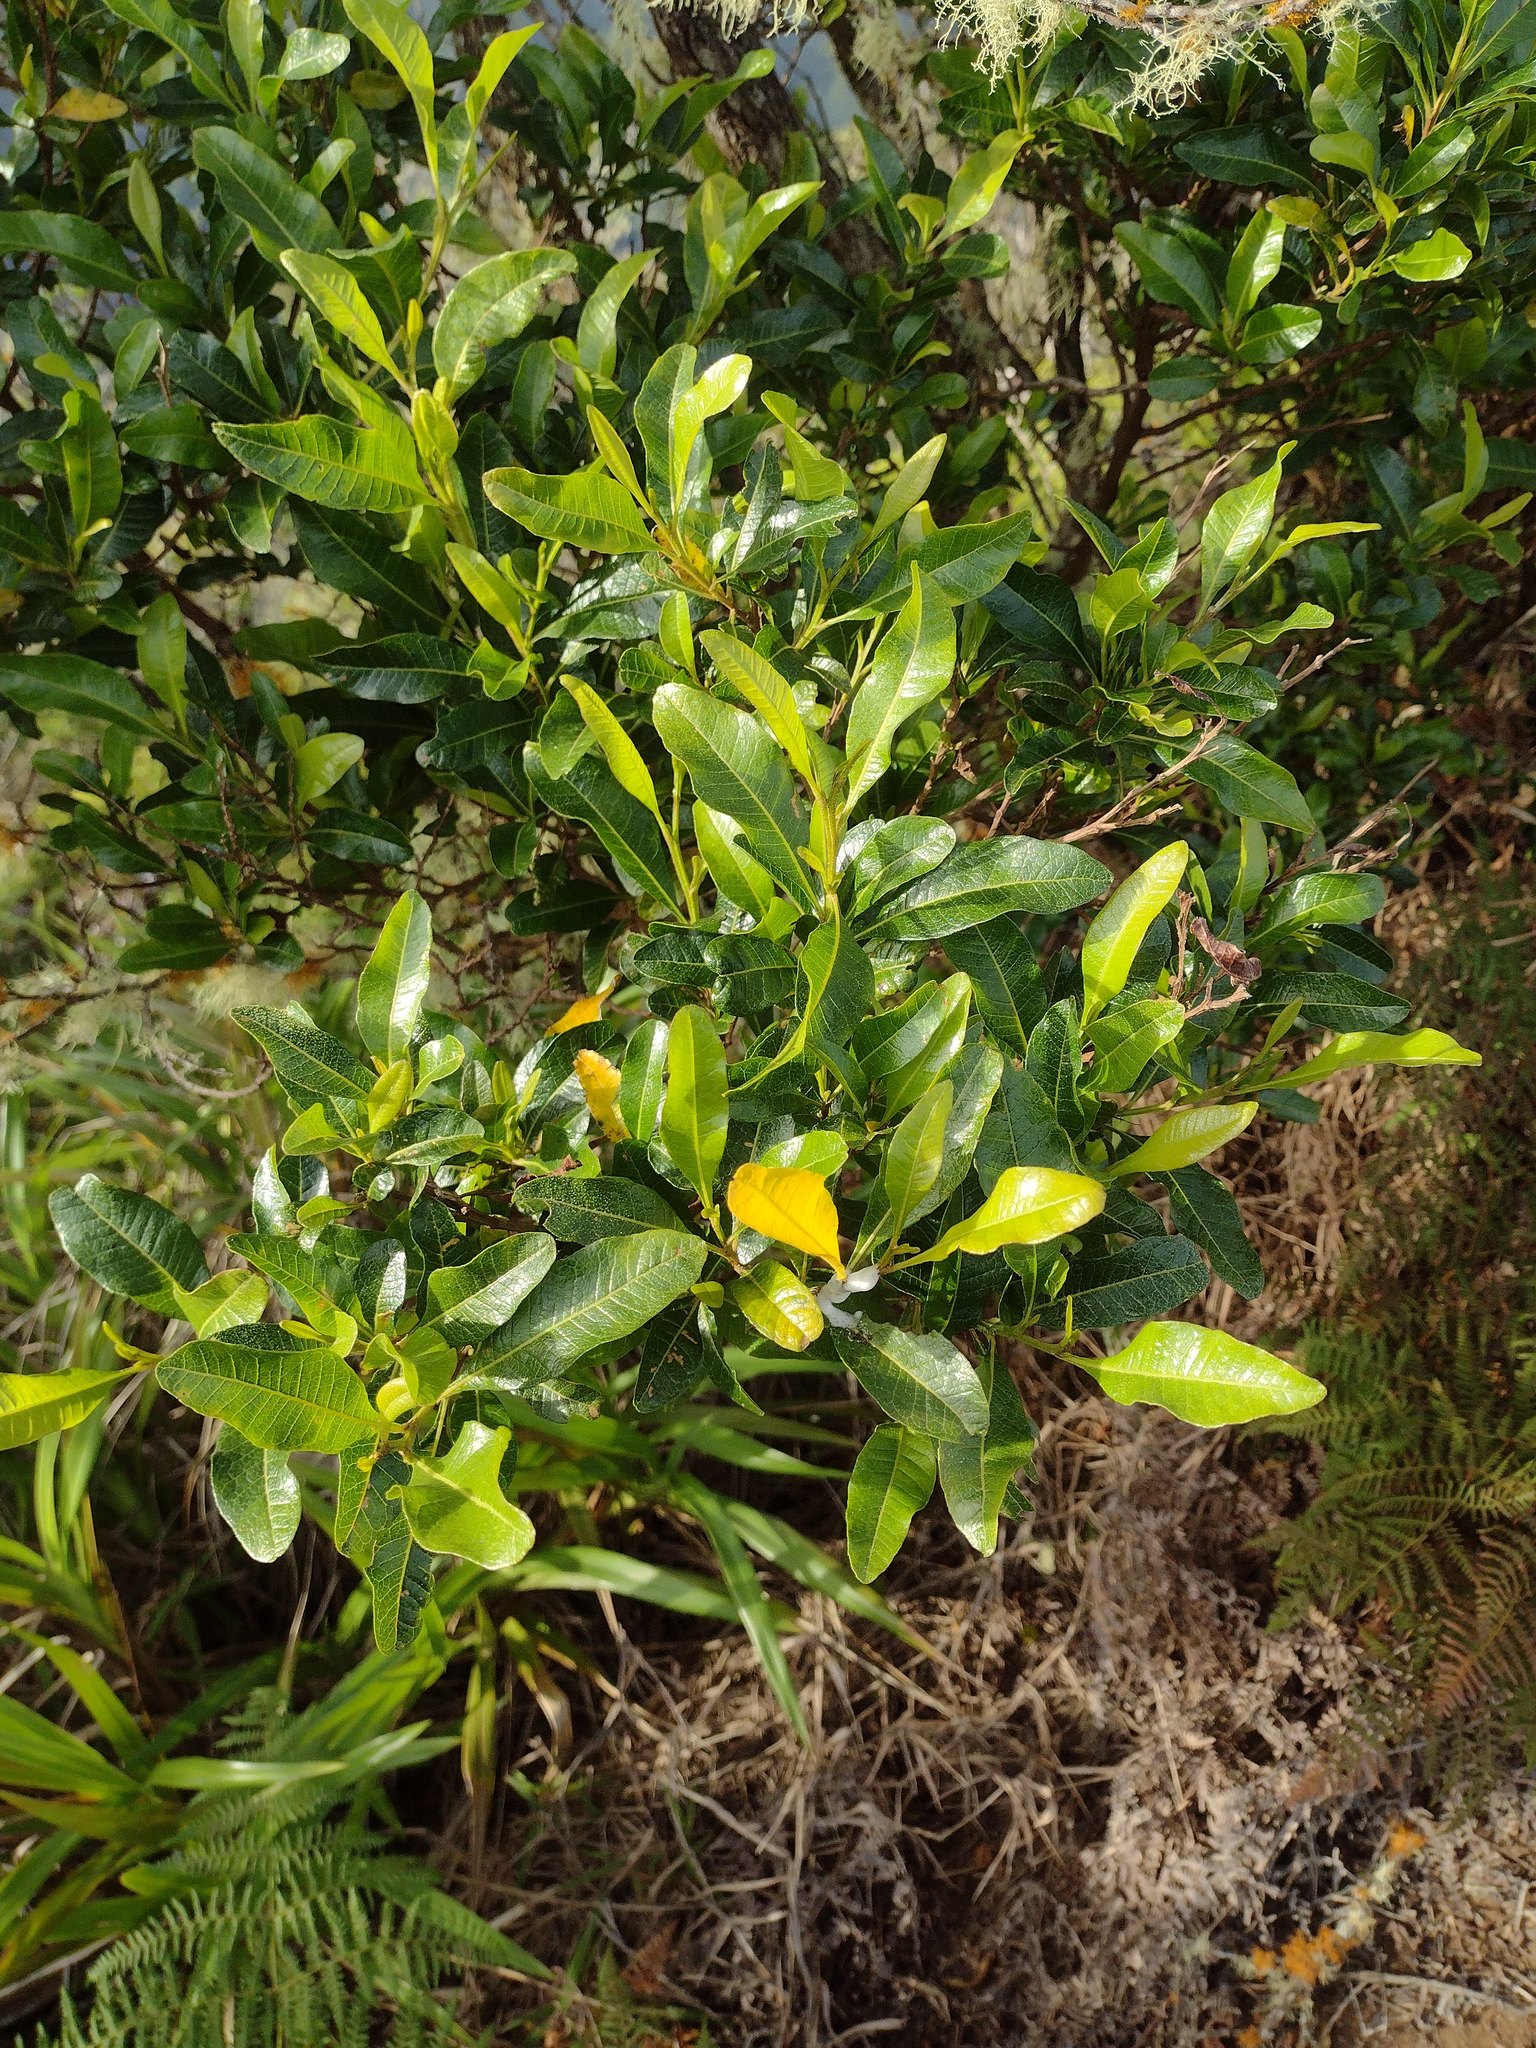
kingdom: Plantae
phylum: Tracheophyta
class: Magnoliopsida
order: Sapindales
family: Sapindaceae
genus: Dodonaea
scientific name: Dodonaea viscosa
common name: Hopbush
